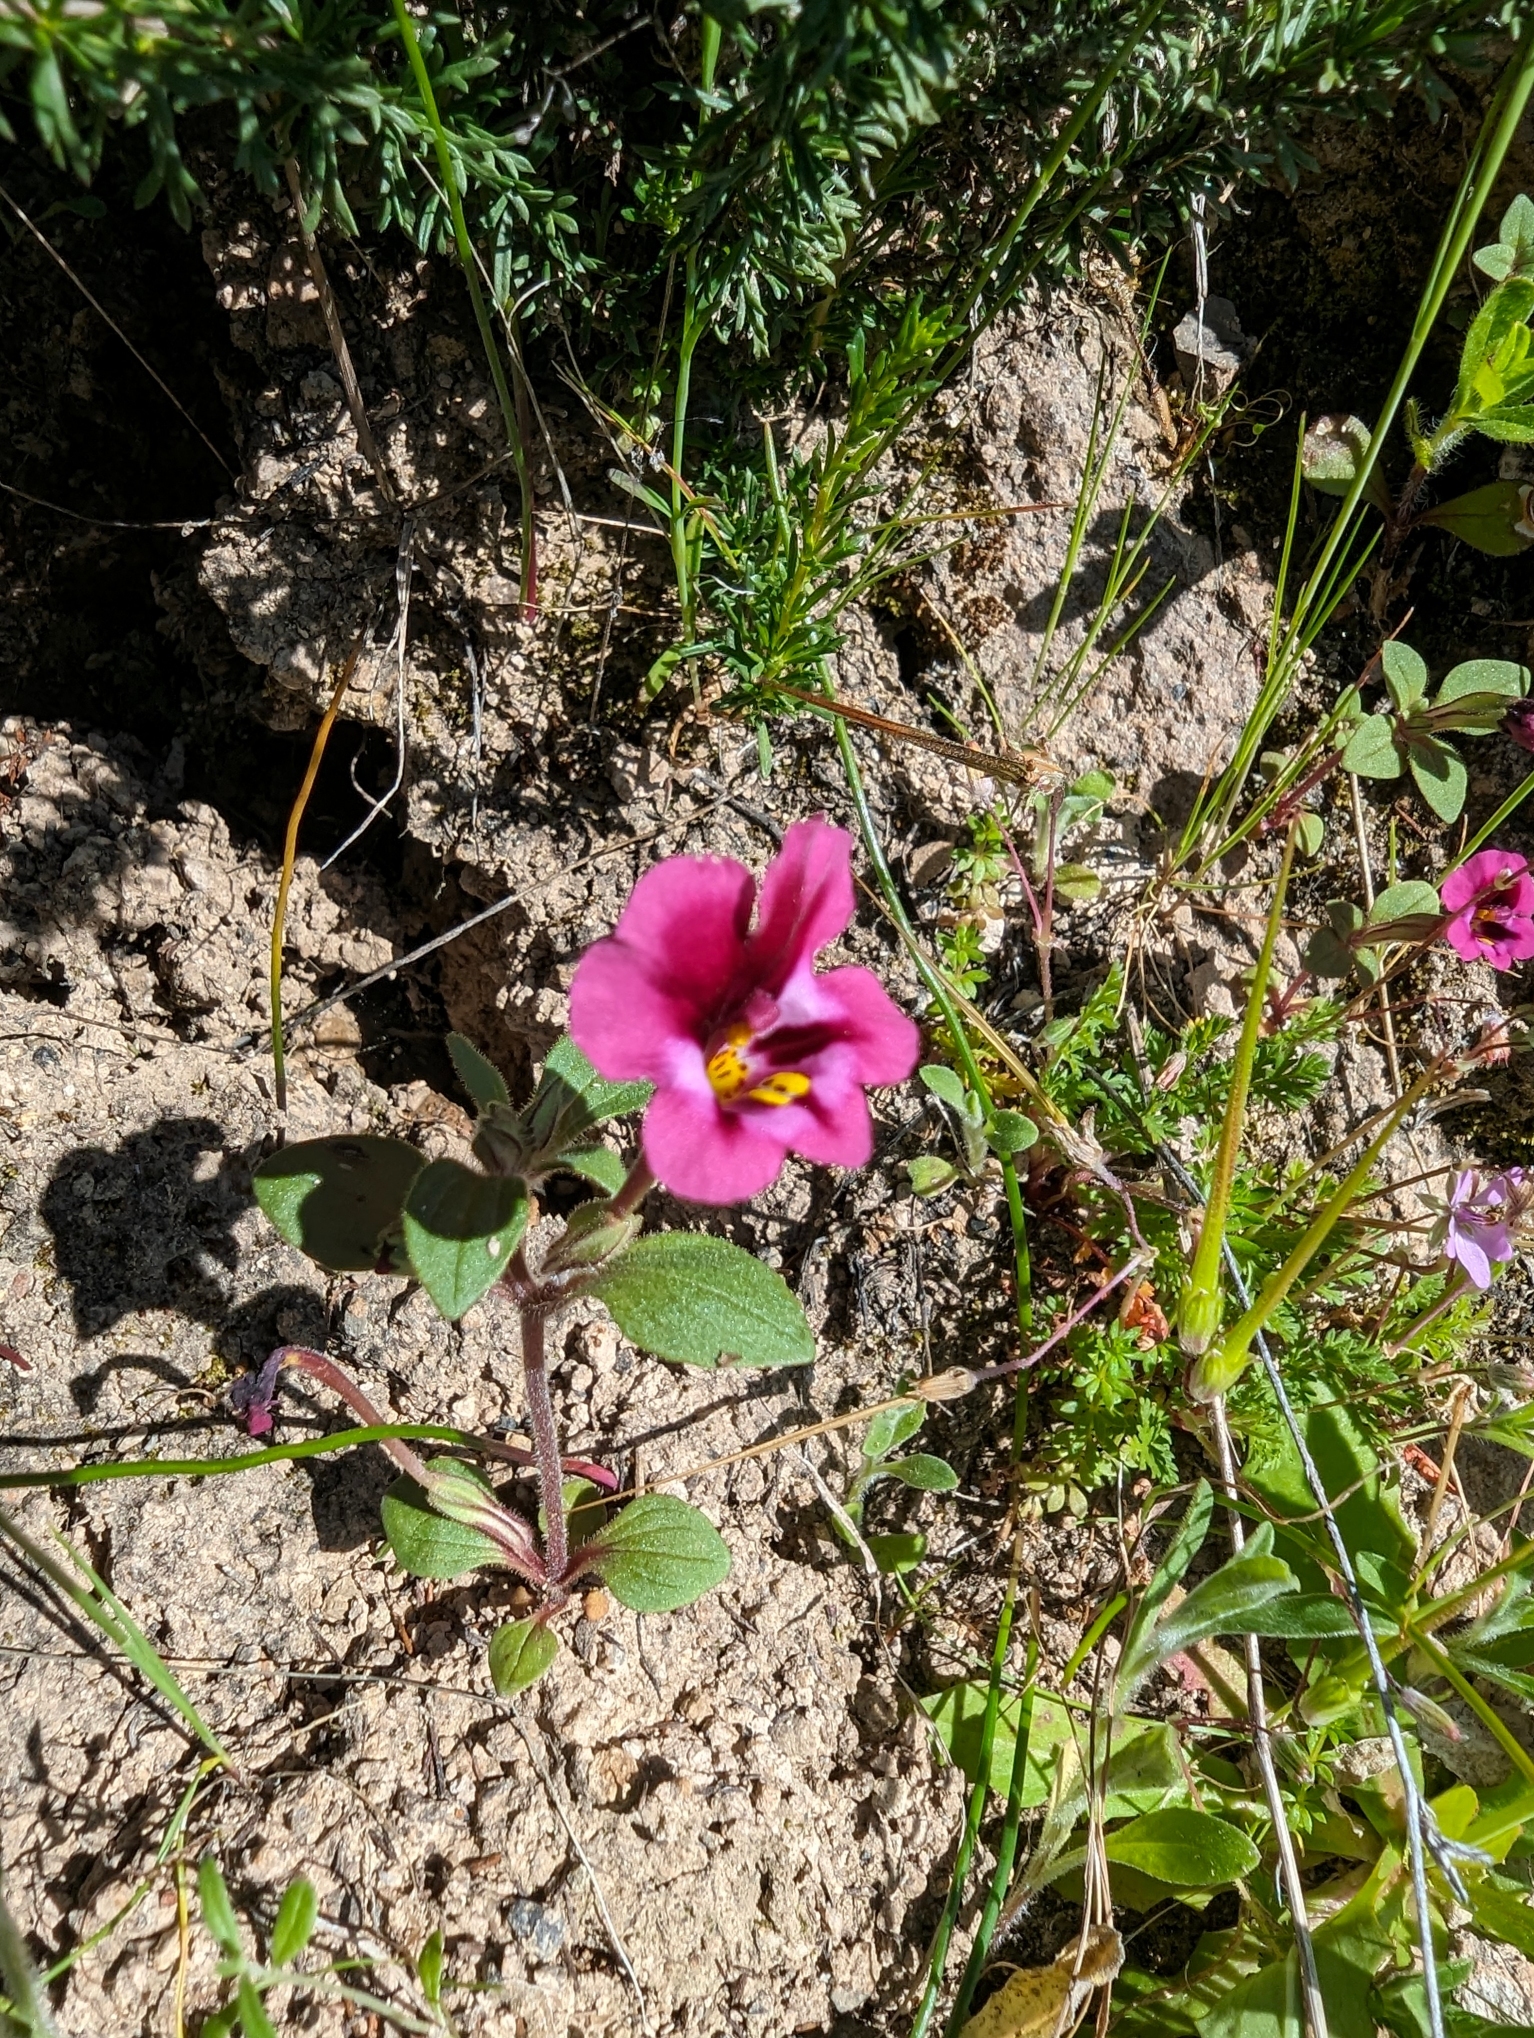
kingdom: Plantae
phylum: Tracheophyta
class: Magnoliopsida
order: Lamiales
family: Phrymaceae
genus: Diplacus
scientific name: Diplacus kelloggii
